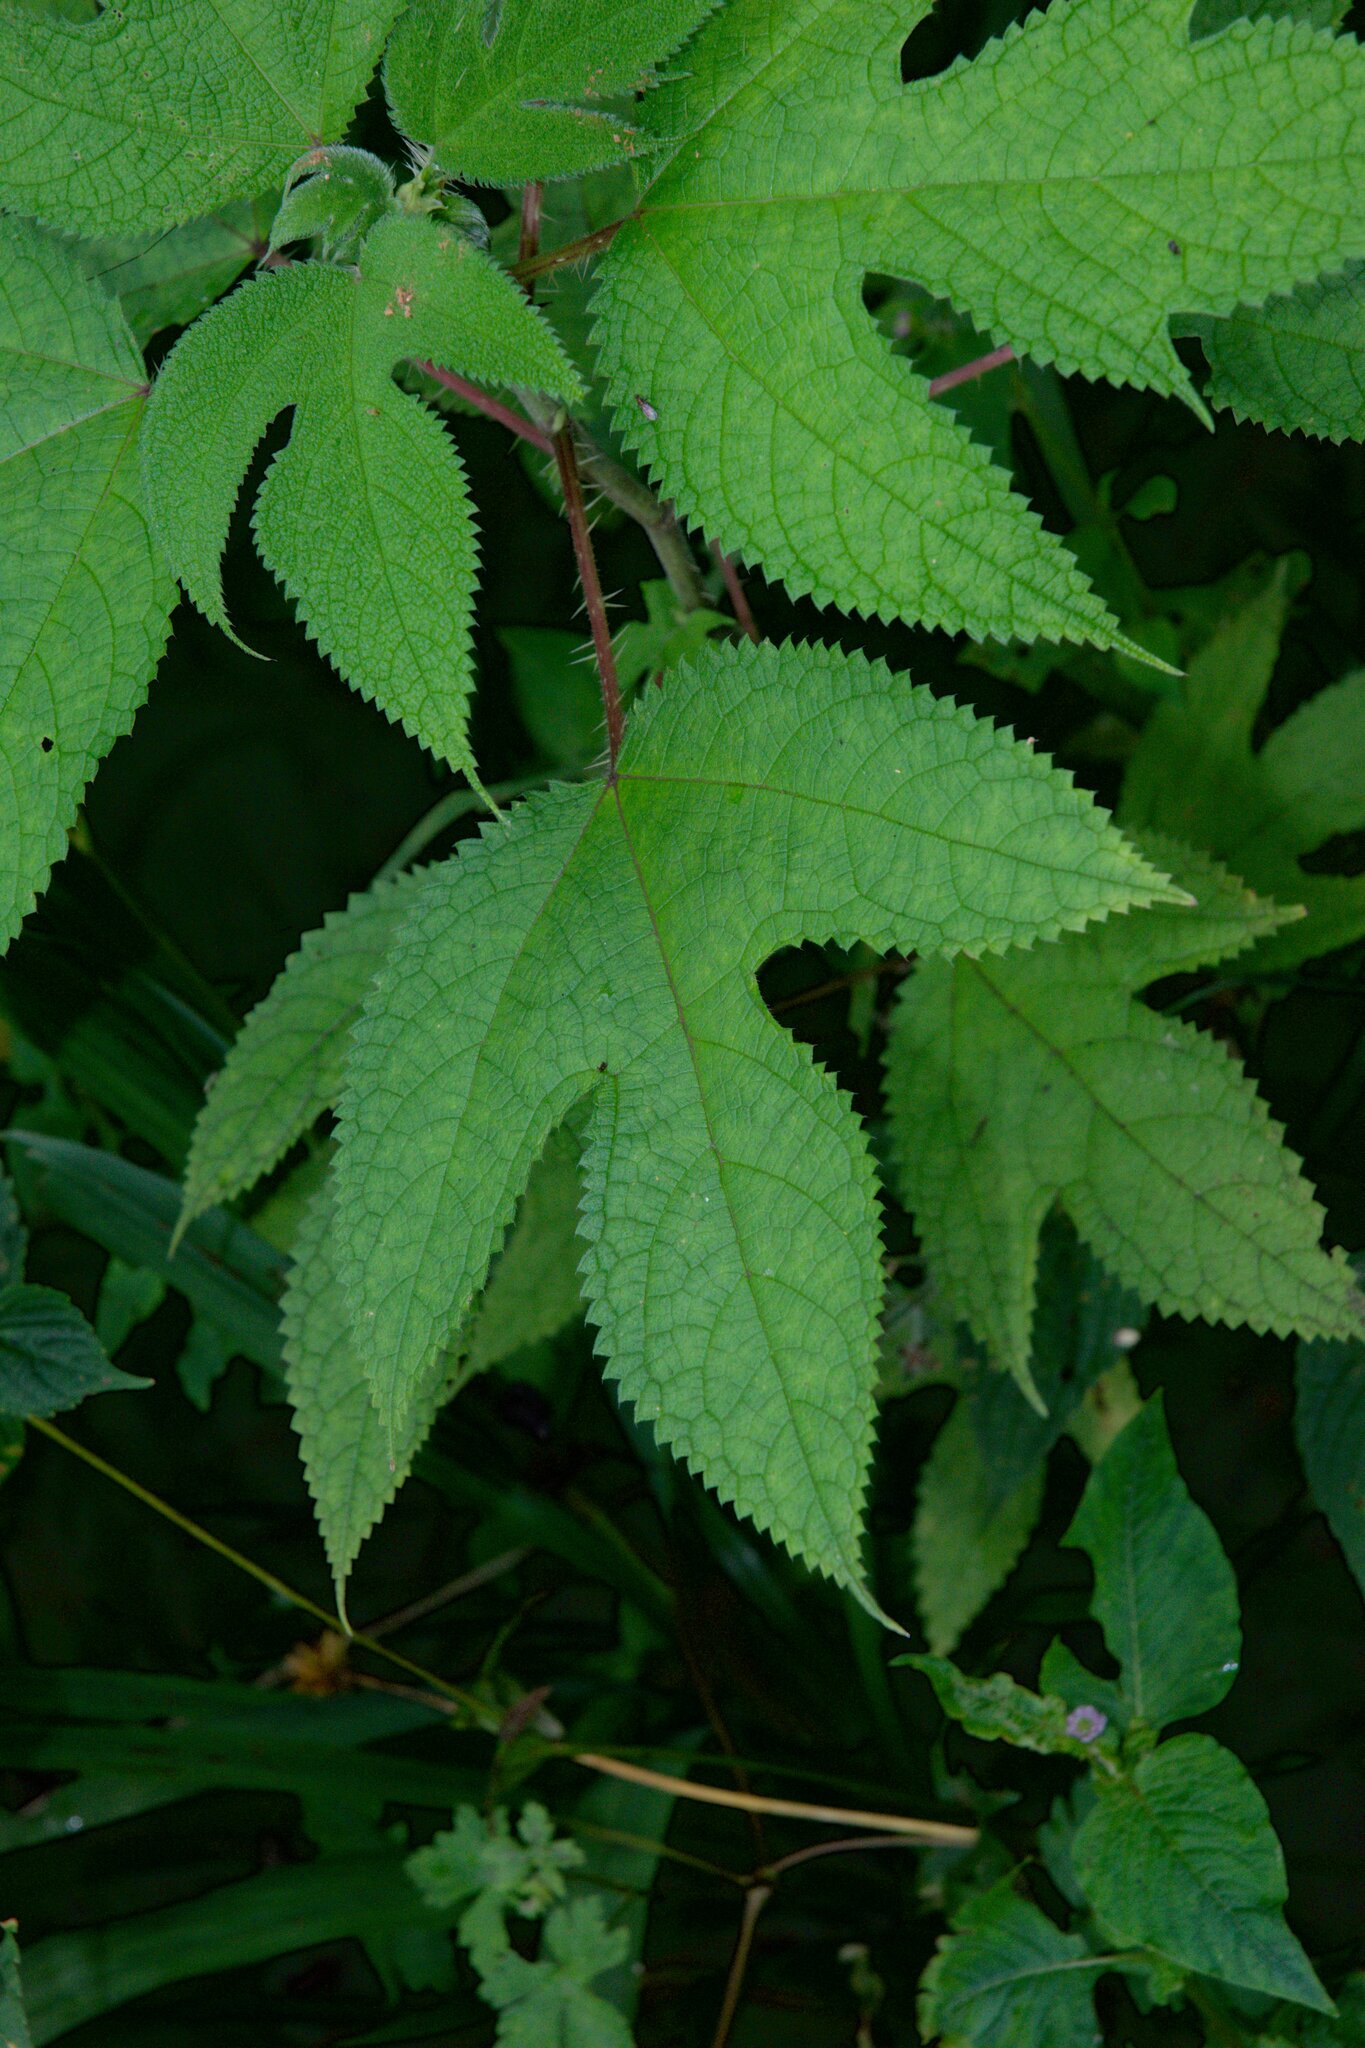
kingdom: Plantae
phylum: Tracheophyta
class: Magnoliopsida
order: Rosales
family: Urticaceae
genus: Girardinia
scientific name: Girardinia diversifolia
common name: Himalayan-nettle
